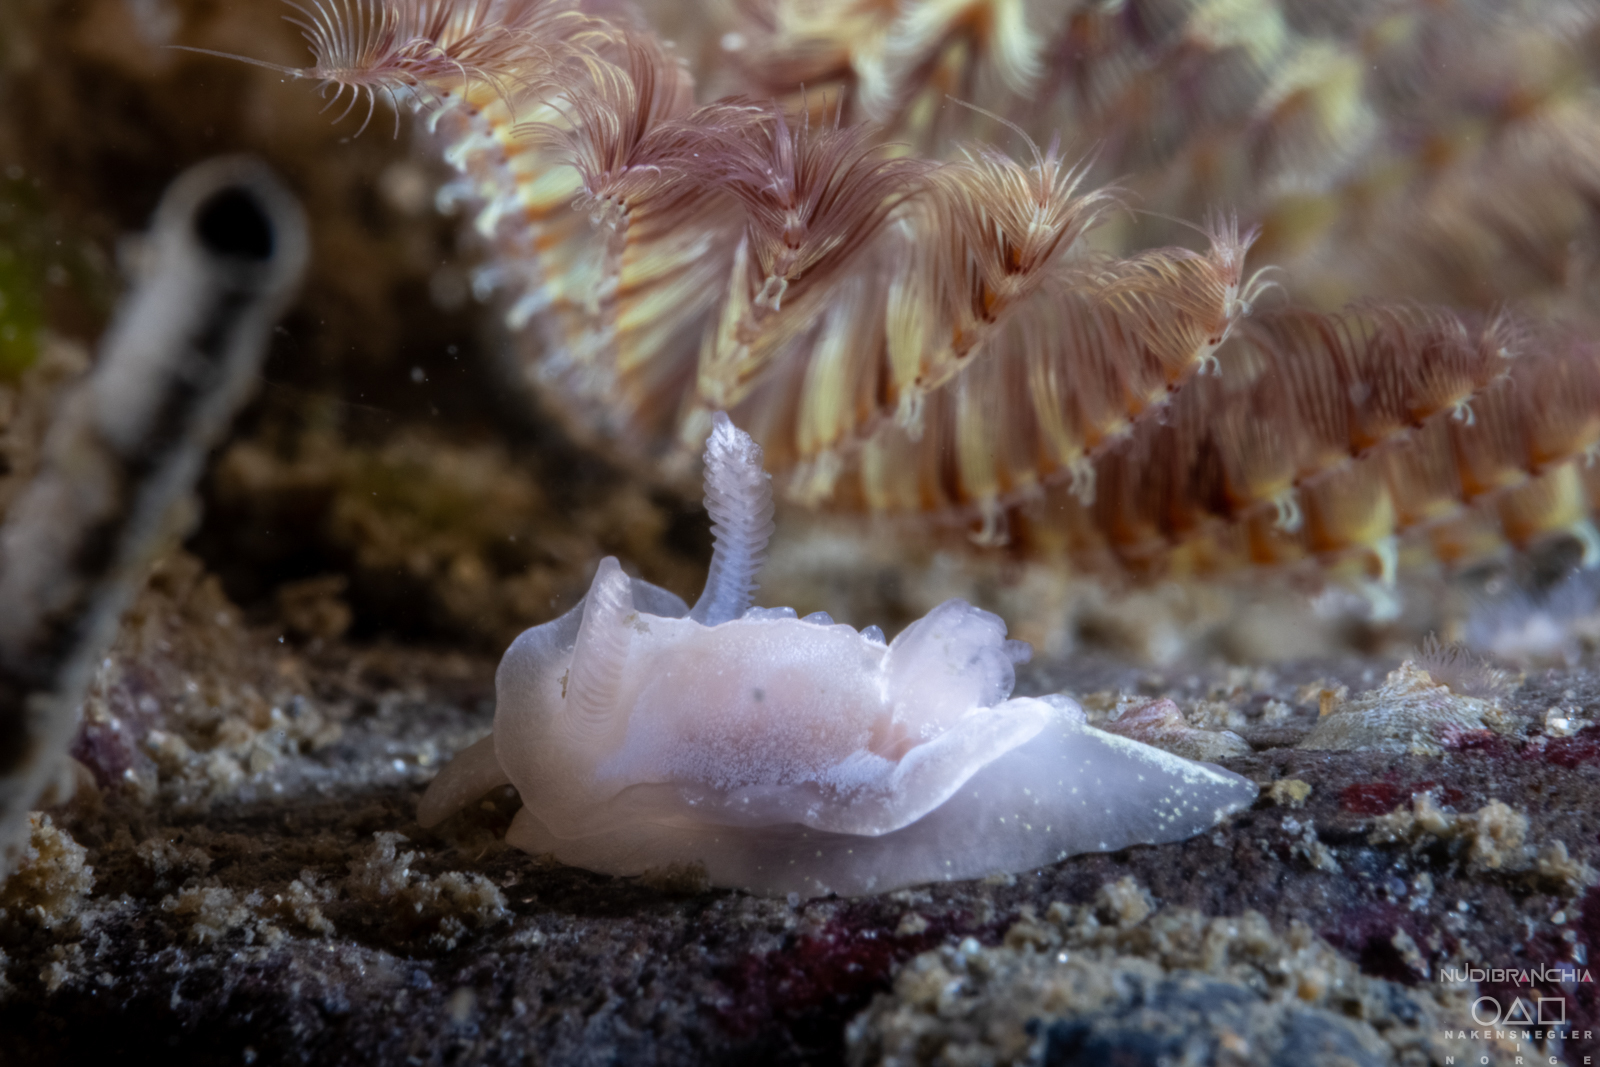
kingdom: Animalia
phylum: Mollusca
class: Gastropoda
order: Nudibranchia
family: Goniodorididae
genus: Okenia
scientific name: Okenia
